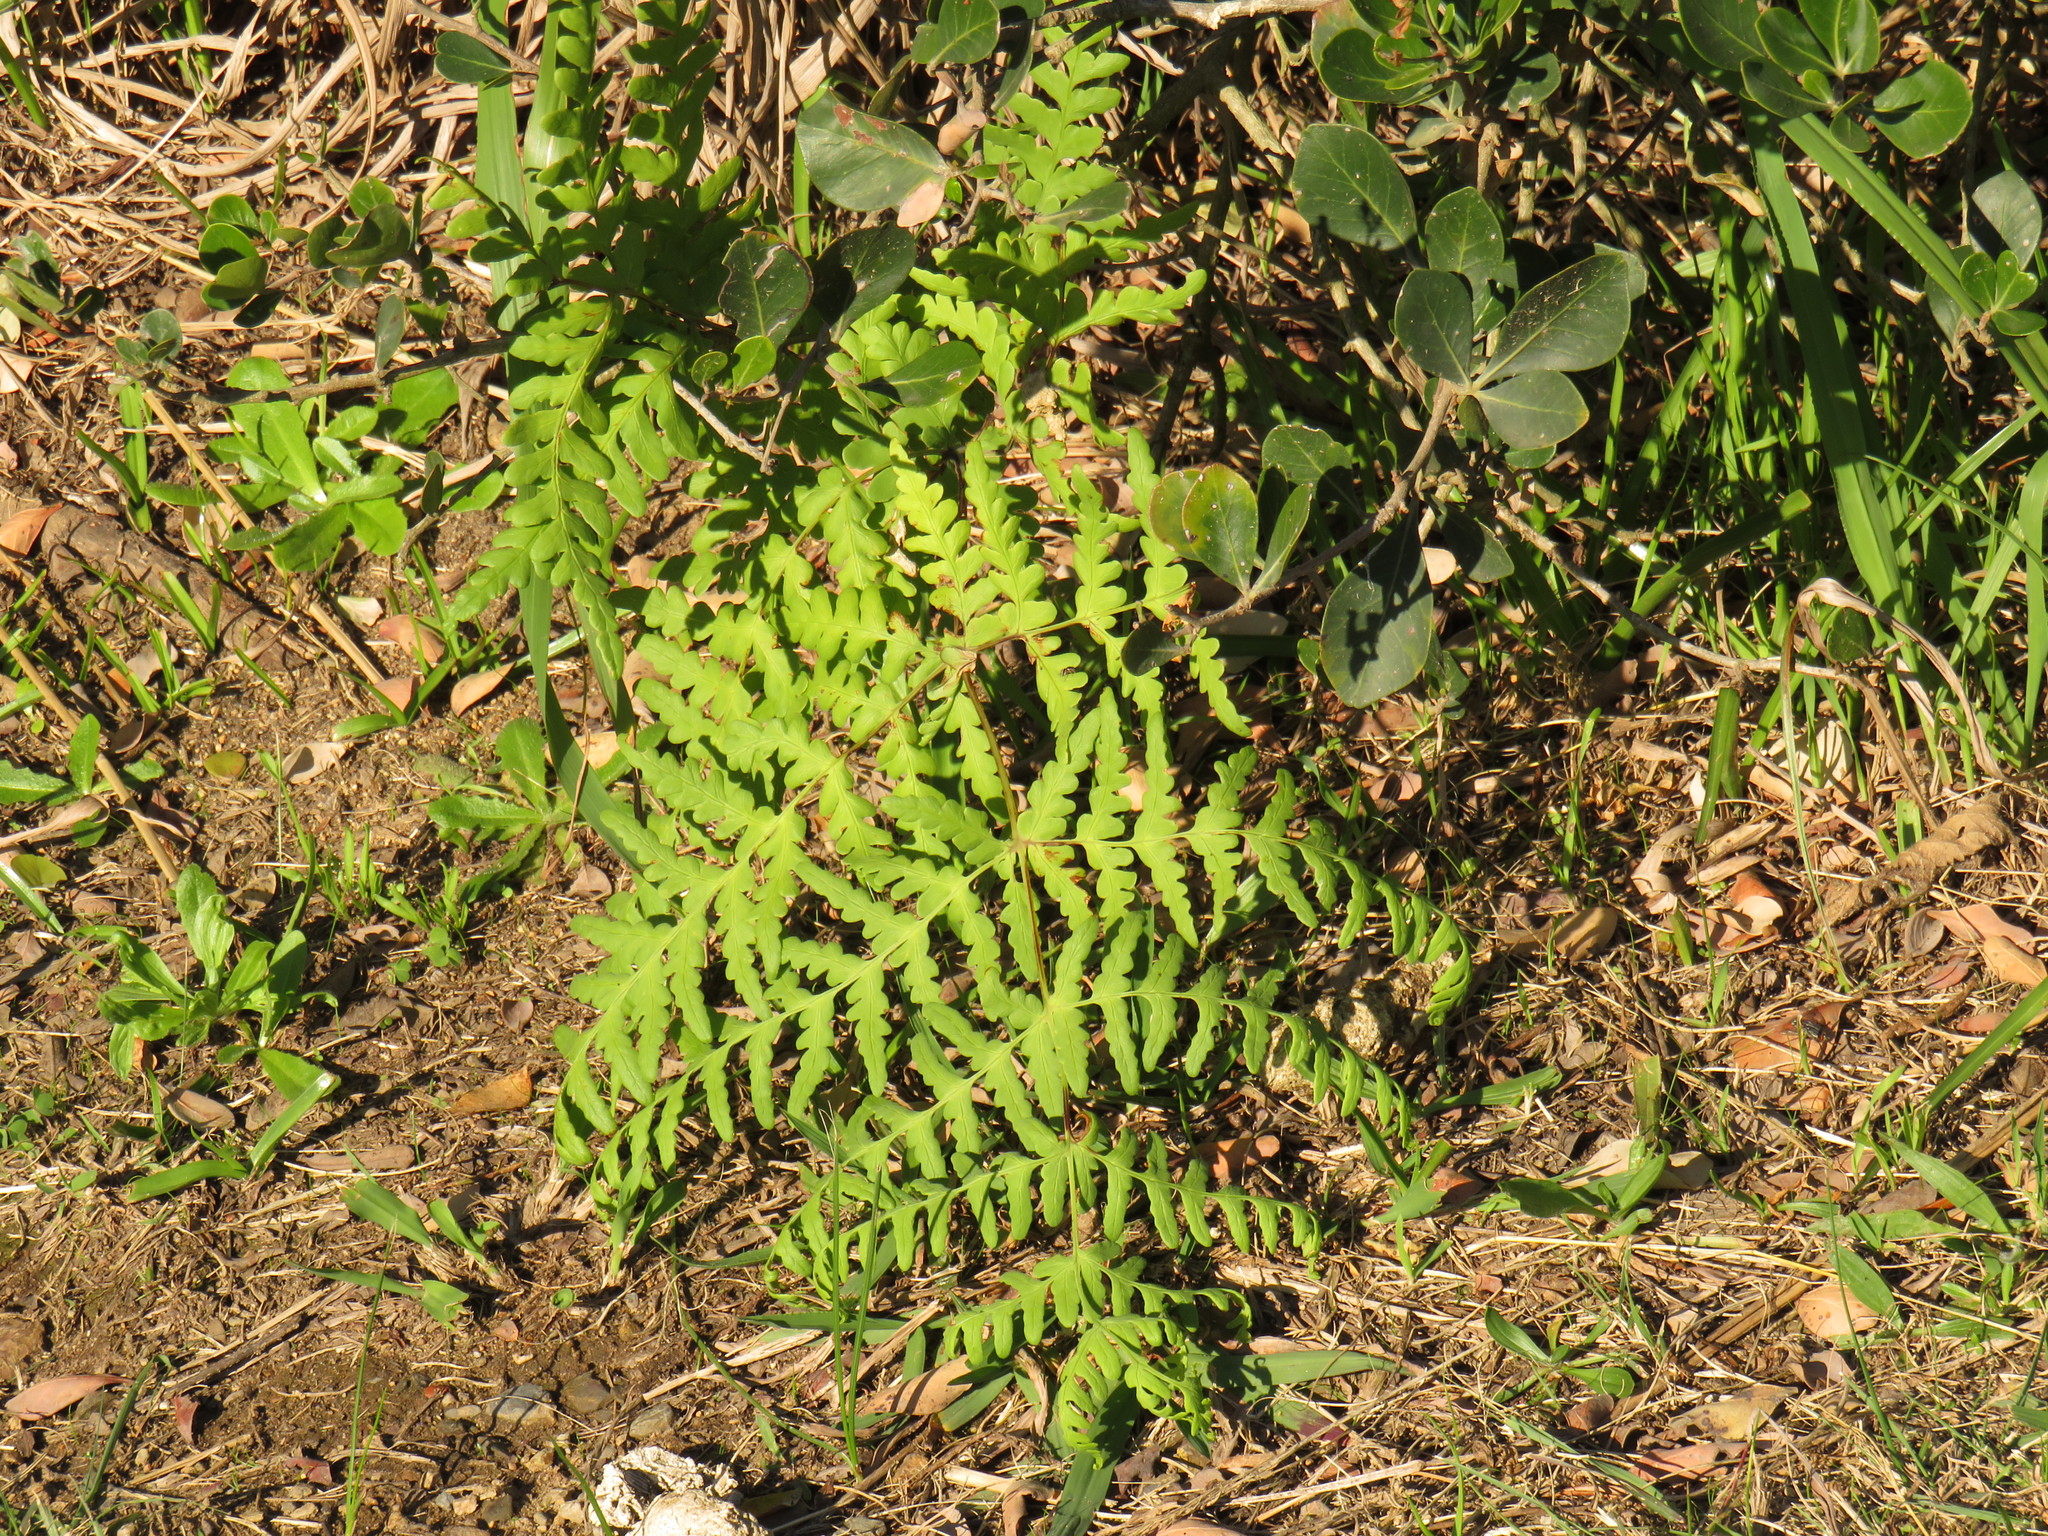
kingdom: Plantae
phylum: Tracheophyta
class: Polypodiopsida
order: Polypodiales
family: Dennstaedtiaceae
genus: Histiopteris
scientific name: Histiopteris incisa
